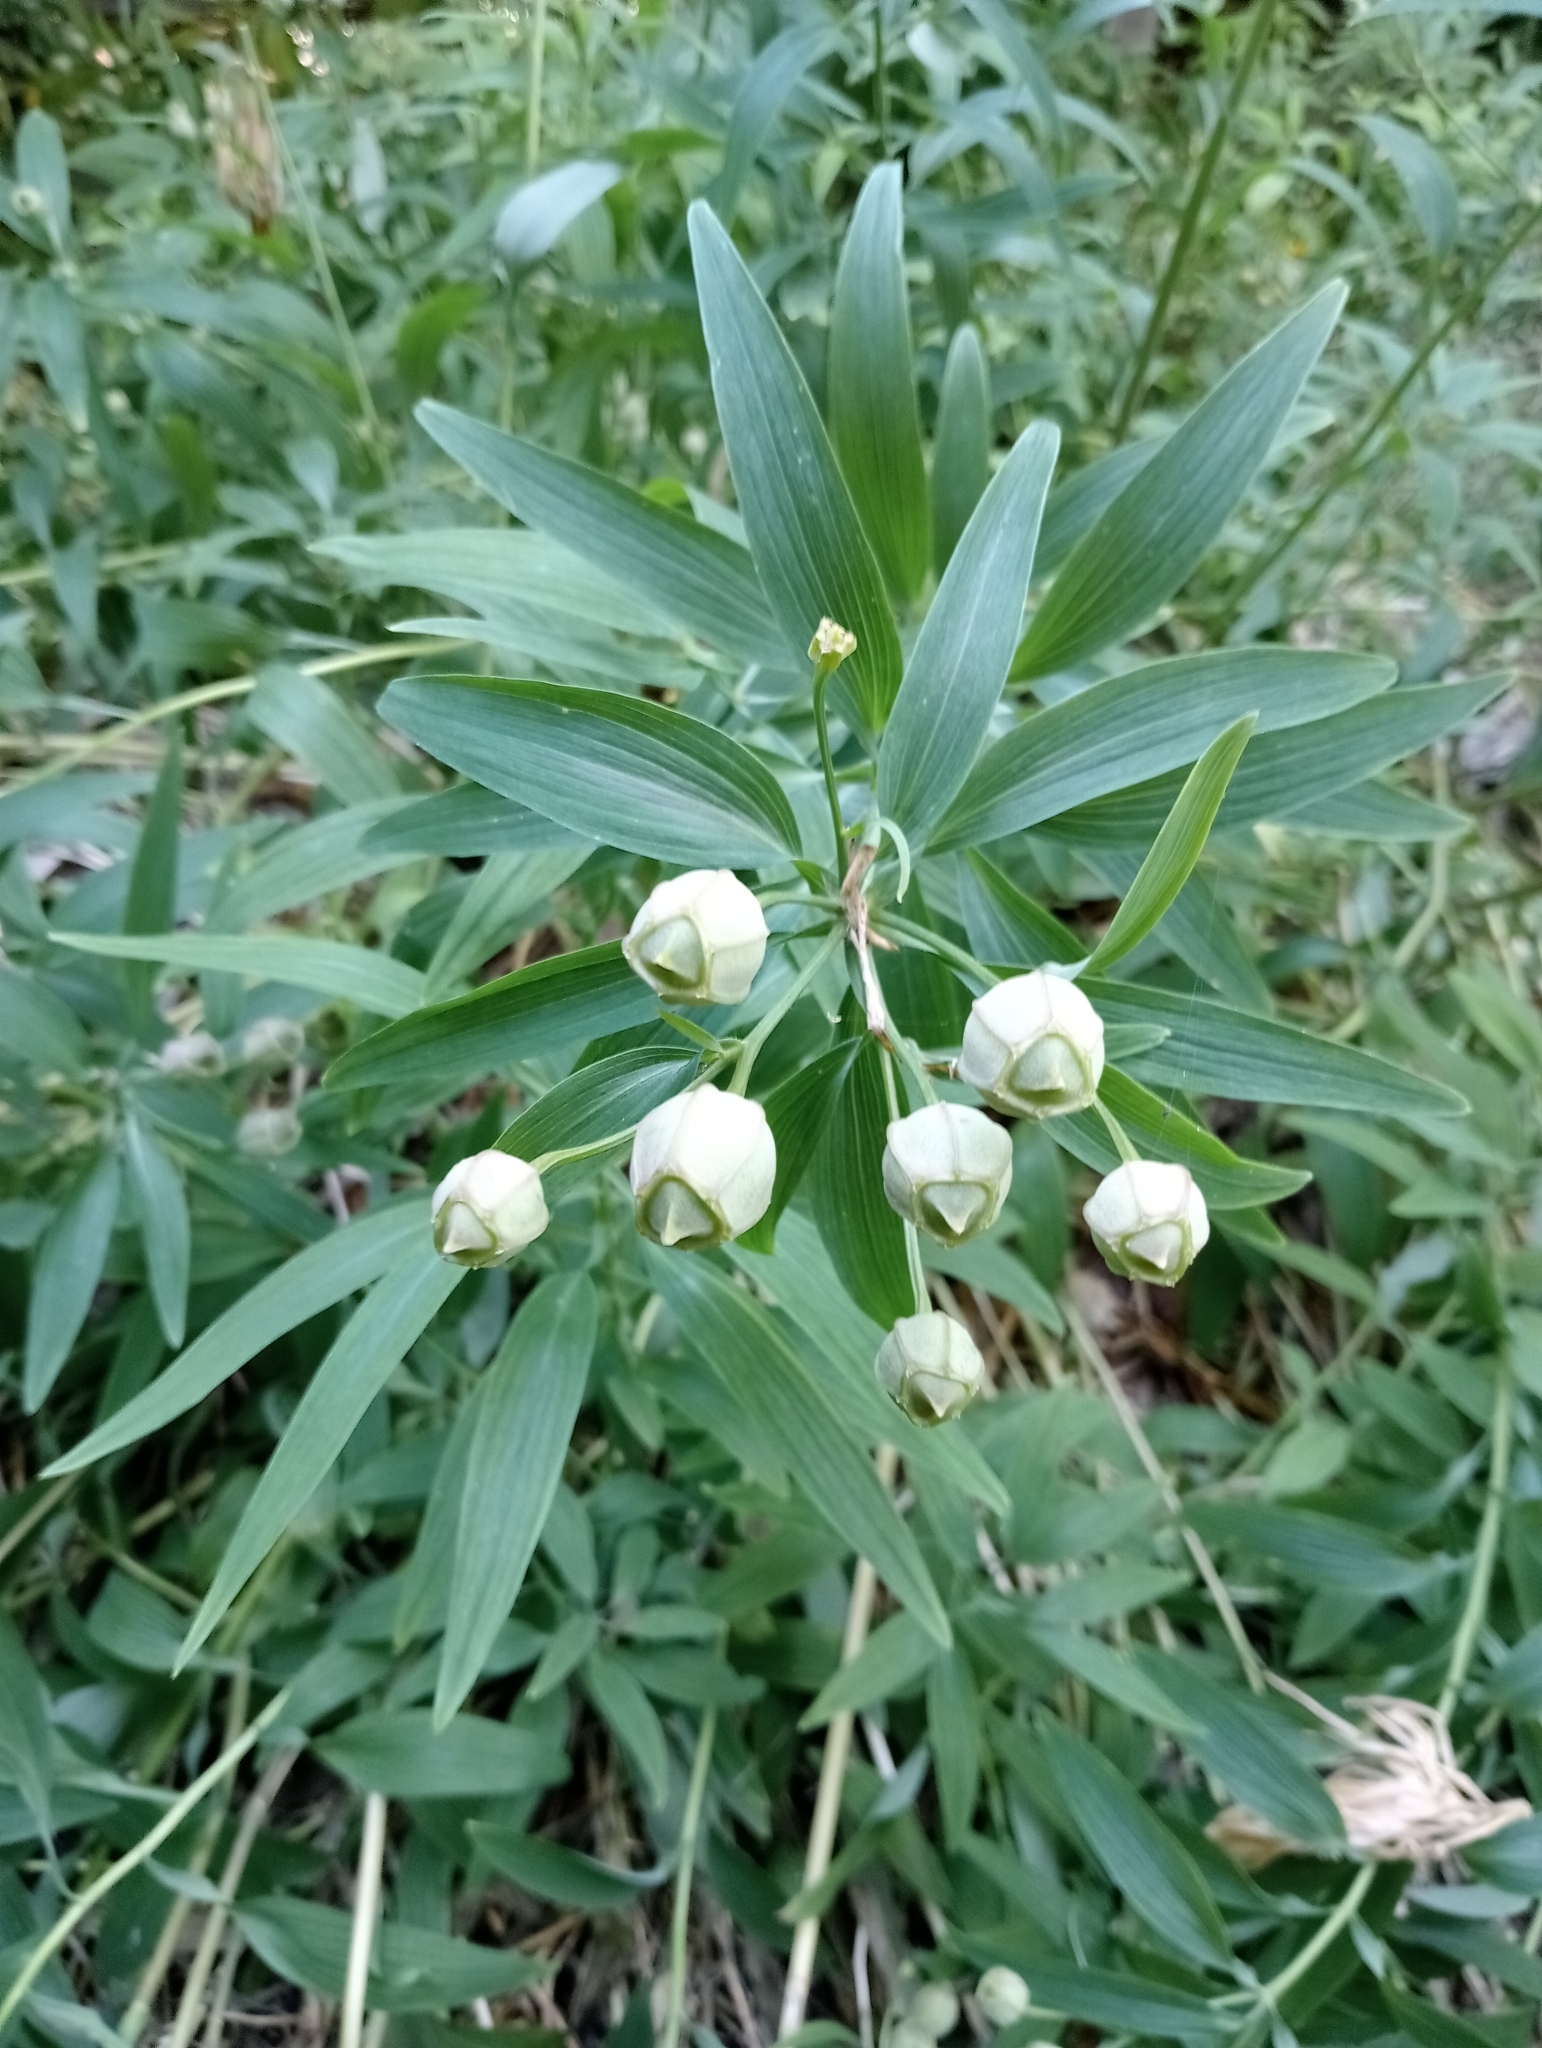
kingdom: Plantae
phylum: Tracheophyta
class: Liliopsida
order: Liliales
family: Alstroemeriaceae
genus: Alstroemeria
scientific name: Alstroemeria aurea
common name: Peruvian lily
